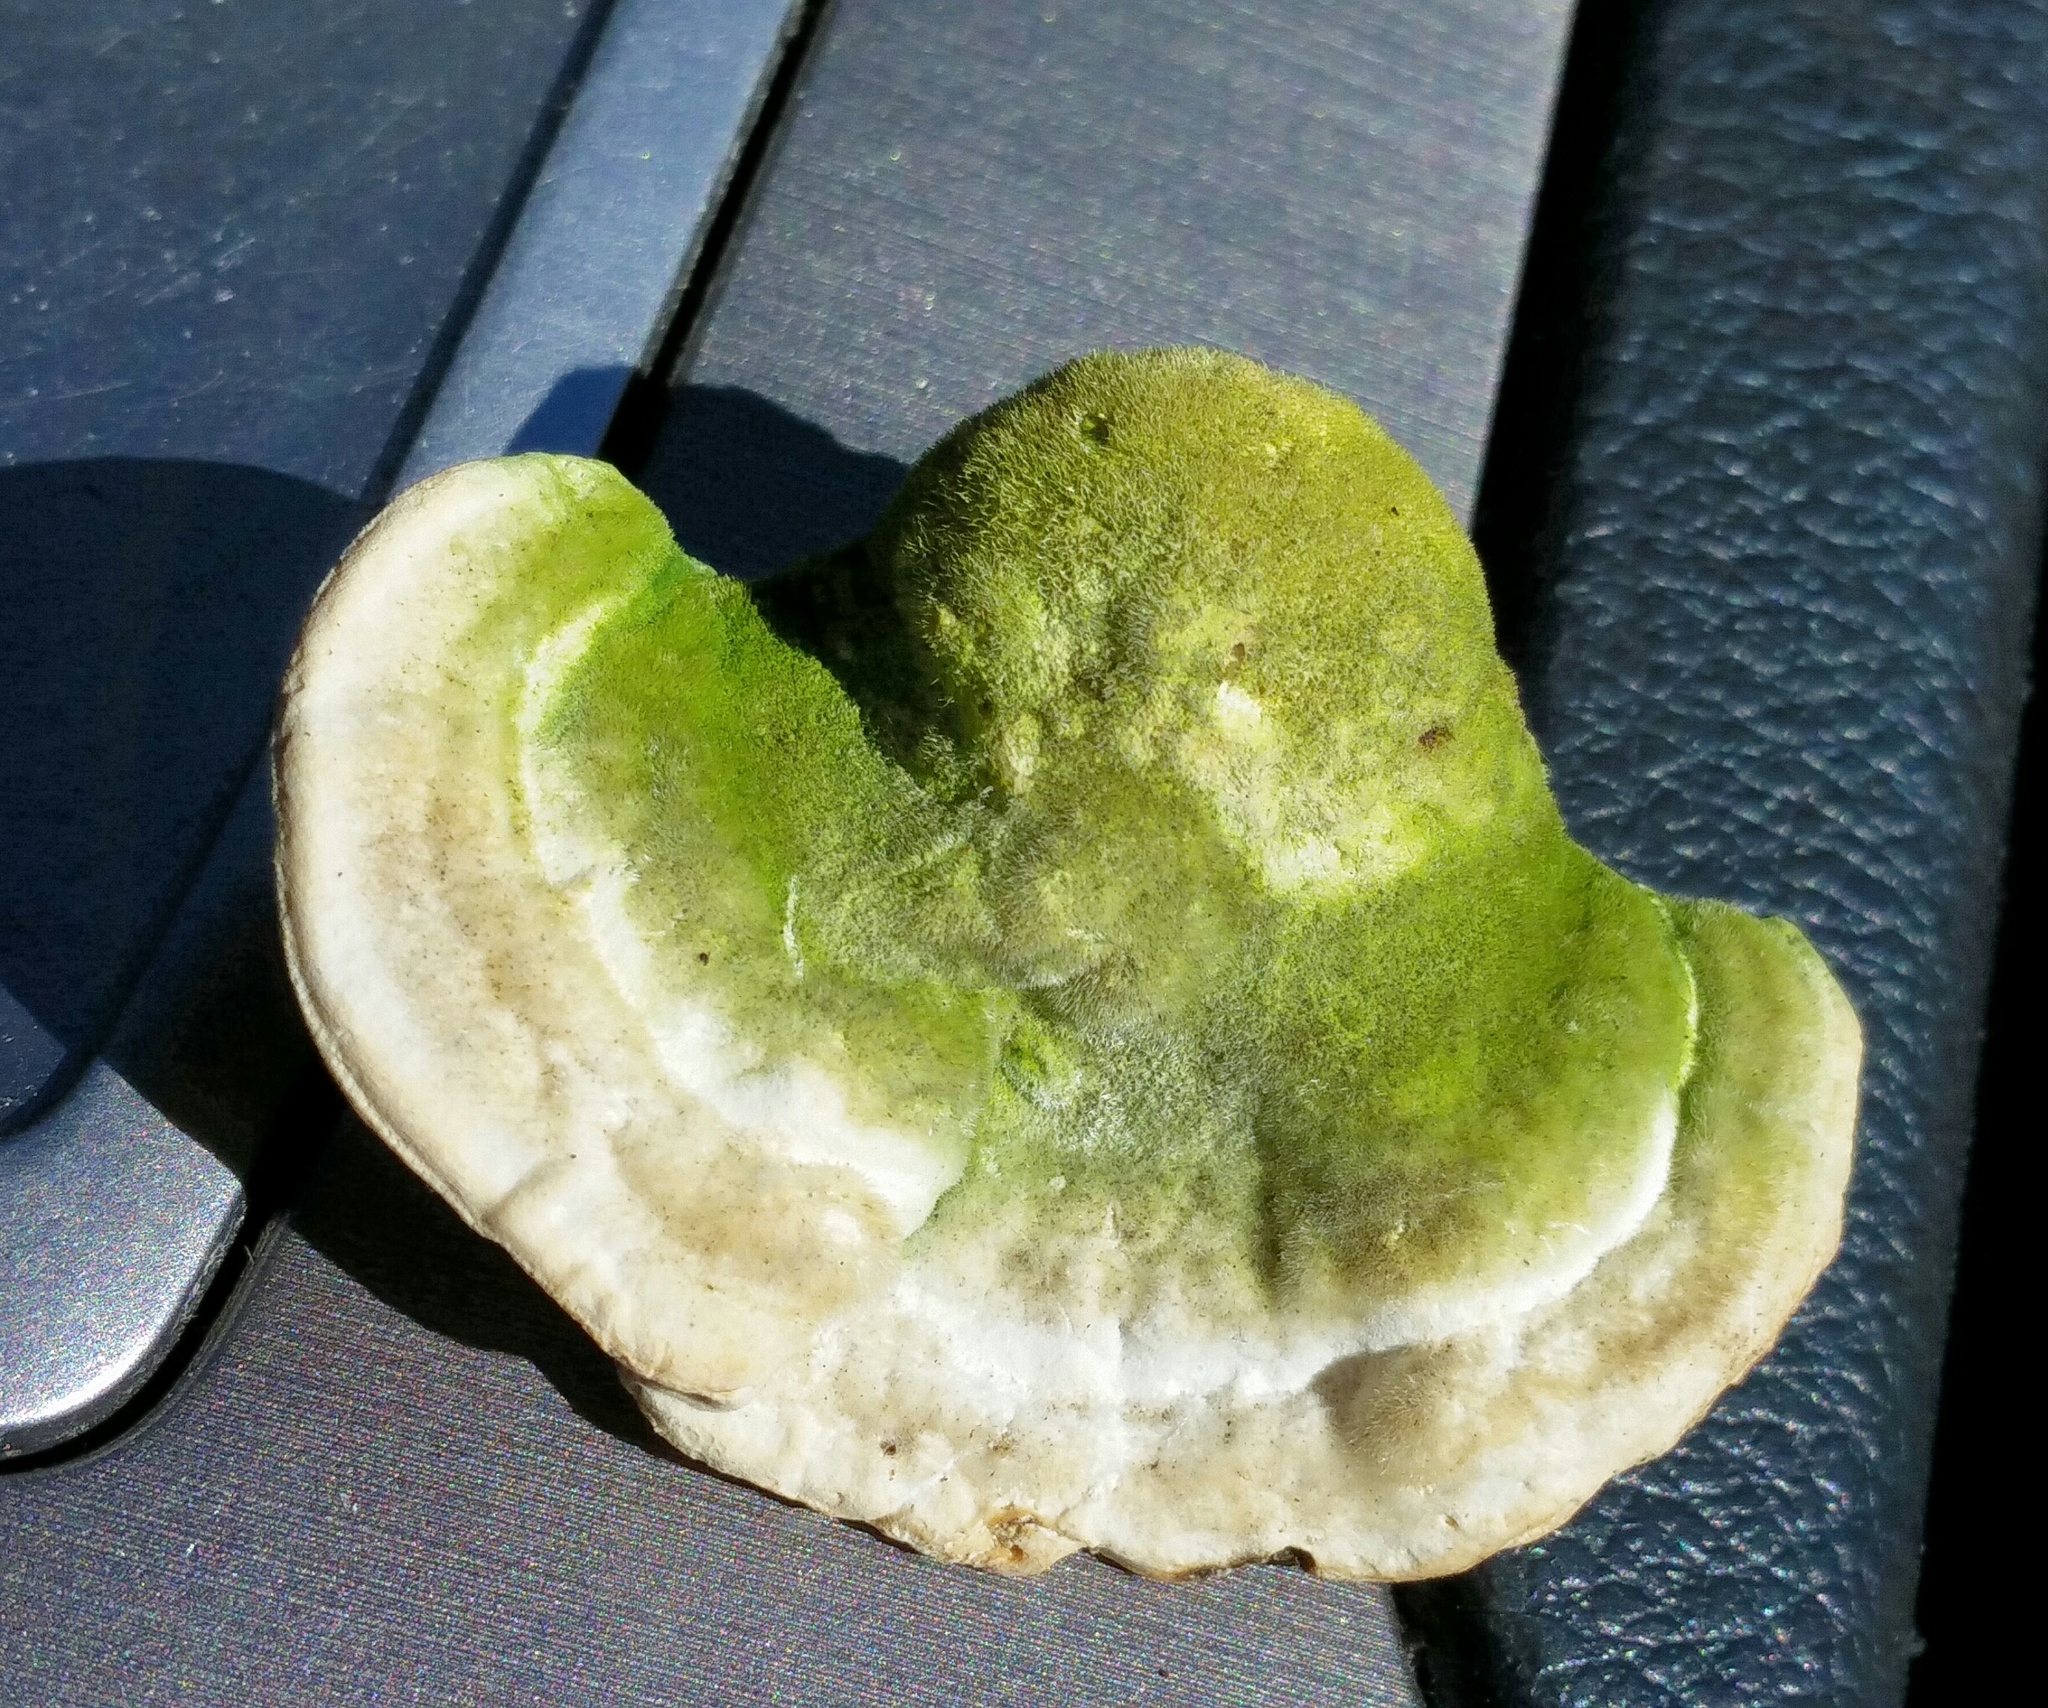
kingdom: Fungi
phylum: Basidiomycota
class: Agaricomycetes
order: Polyporales
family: Polyporaceae
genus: Trametes
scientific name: Trametes gibbosa
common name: Lumpy bracket
